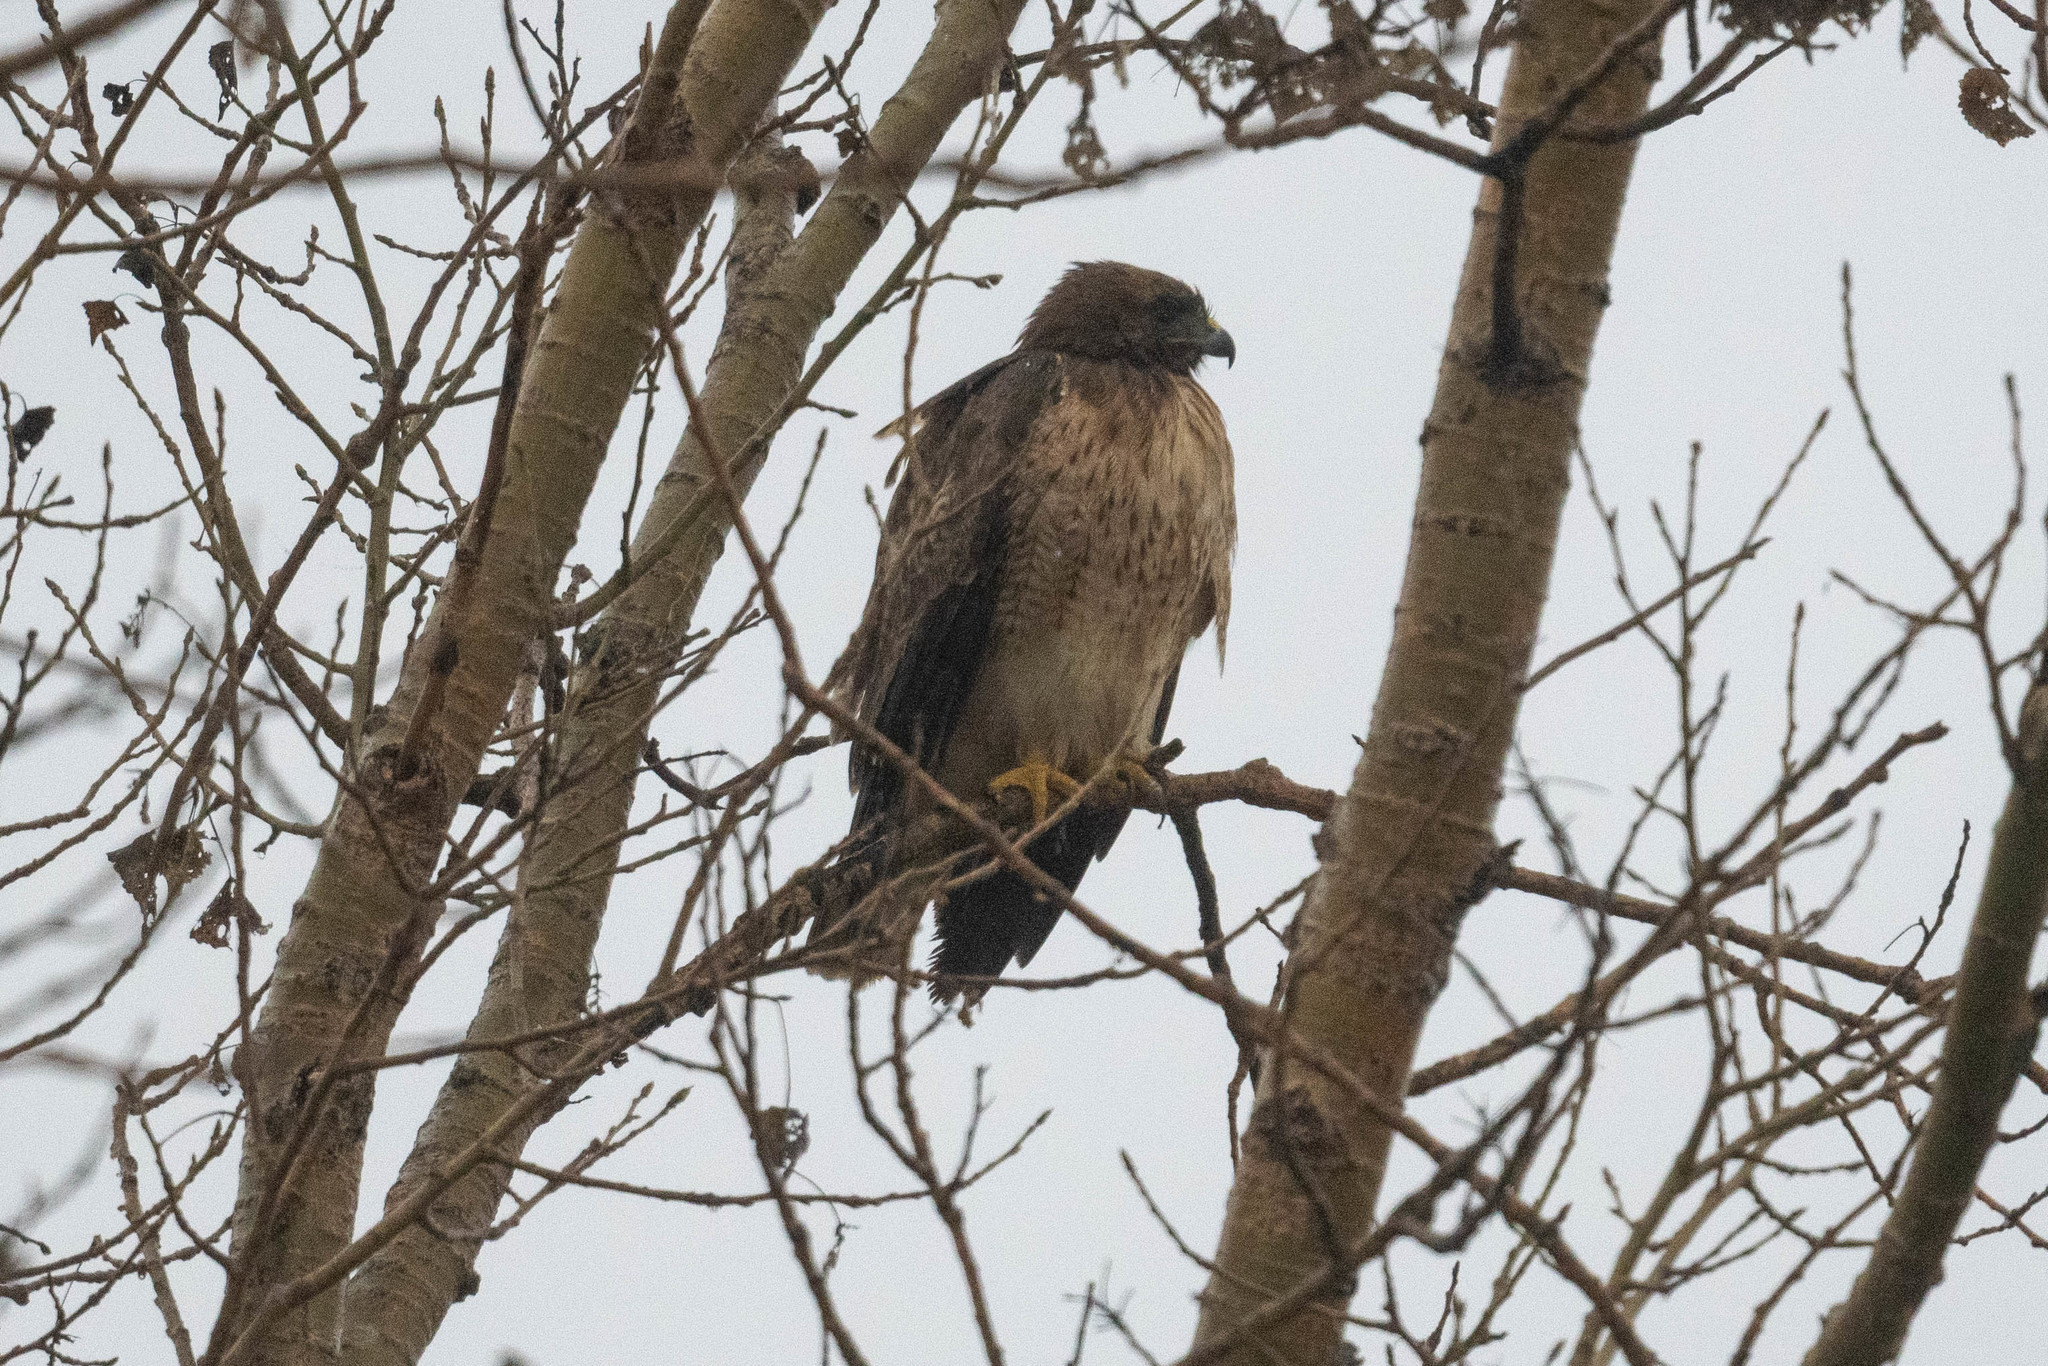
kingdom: Animalia
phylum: Chordata
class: Aves
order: Accipitriformes
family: Accipitridae
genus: Buteo
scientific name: Buteo jamaicensis
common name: Red-tailed hawk
